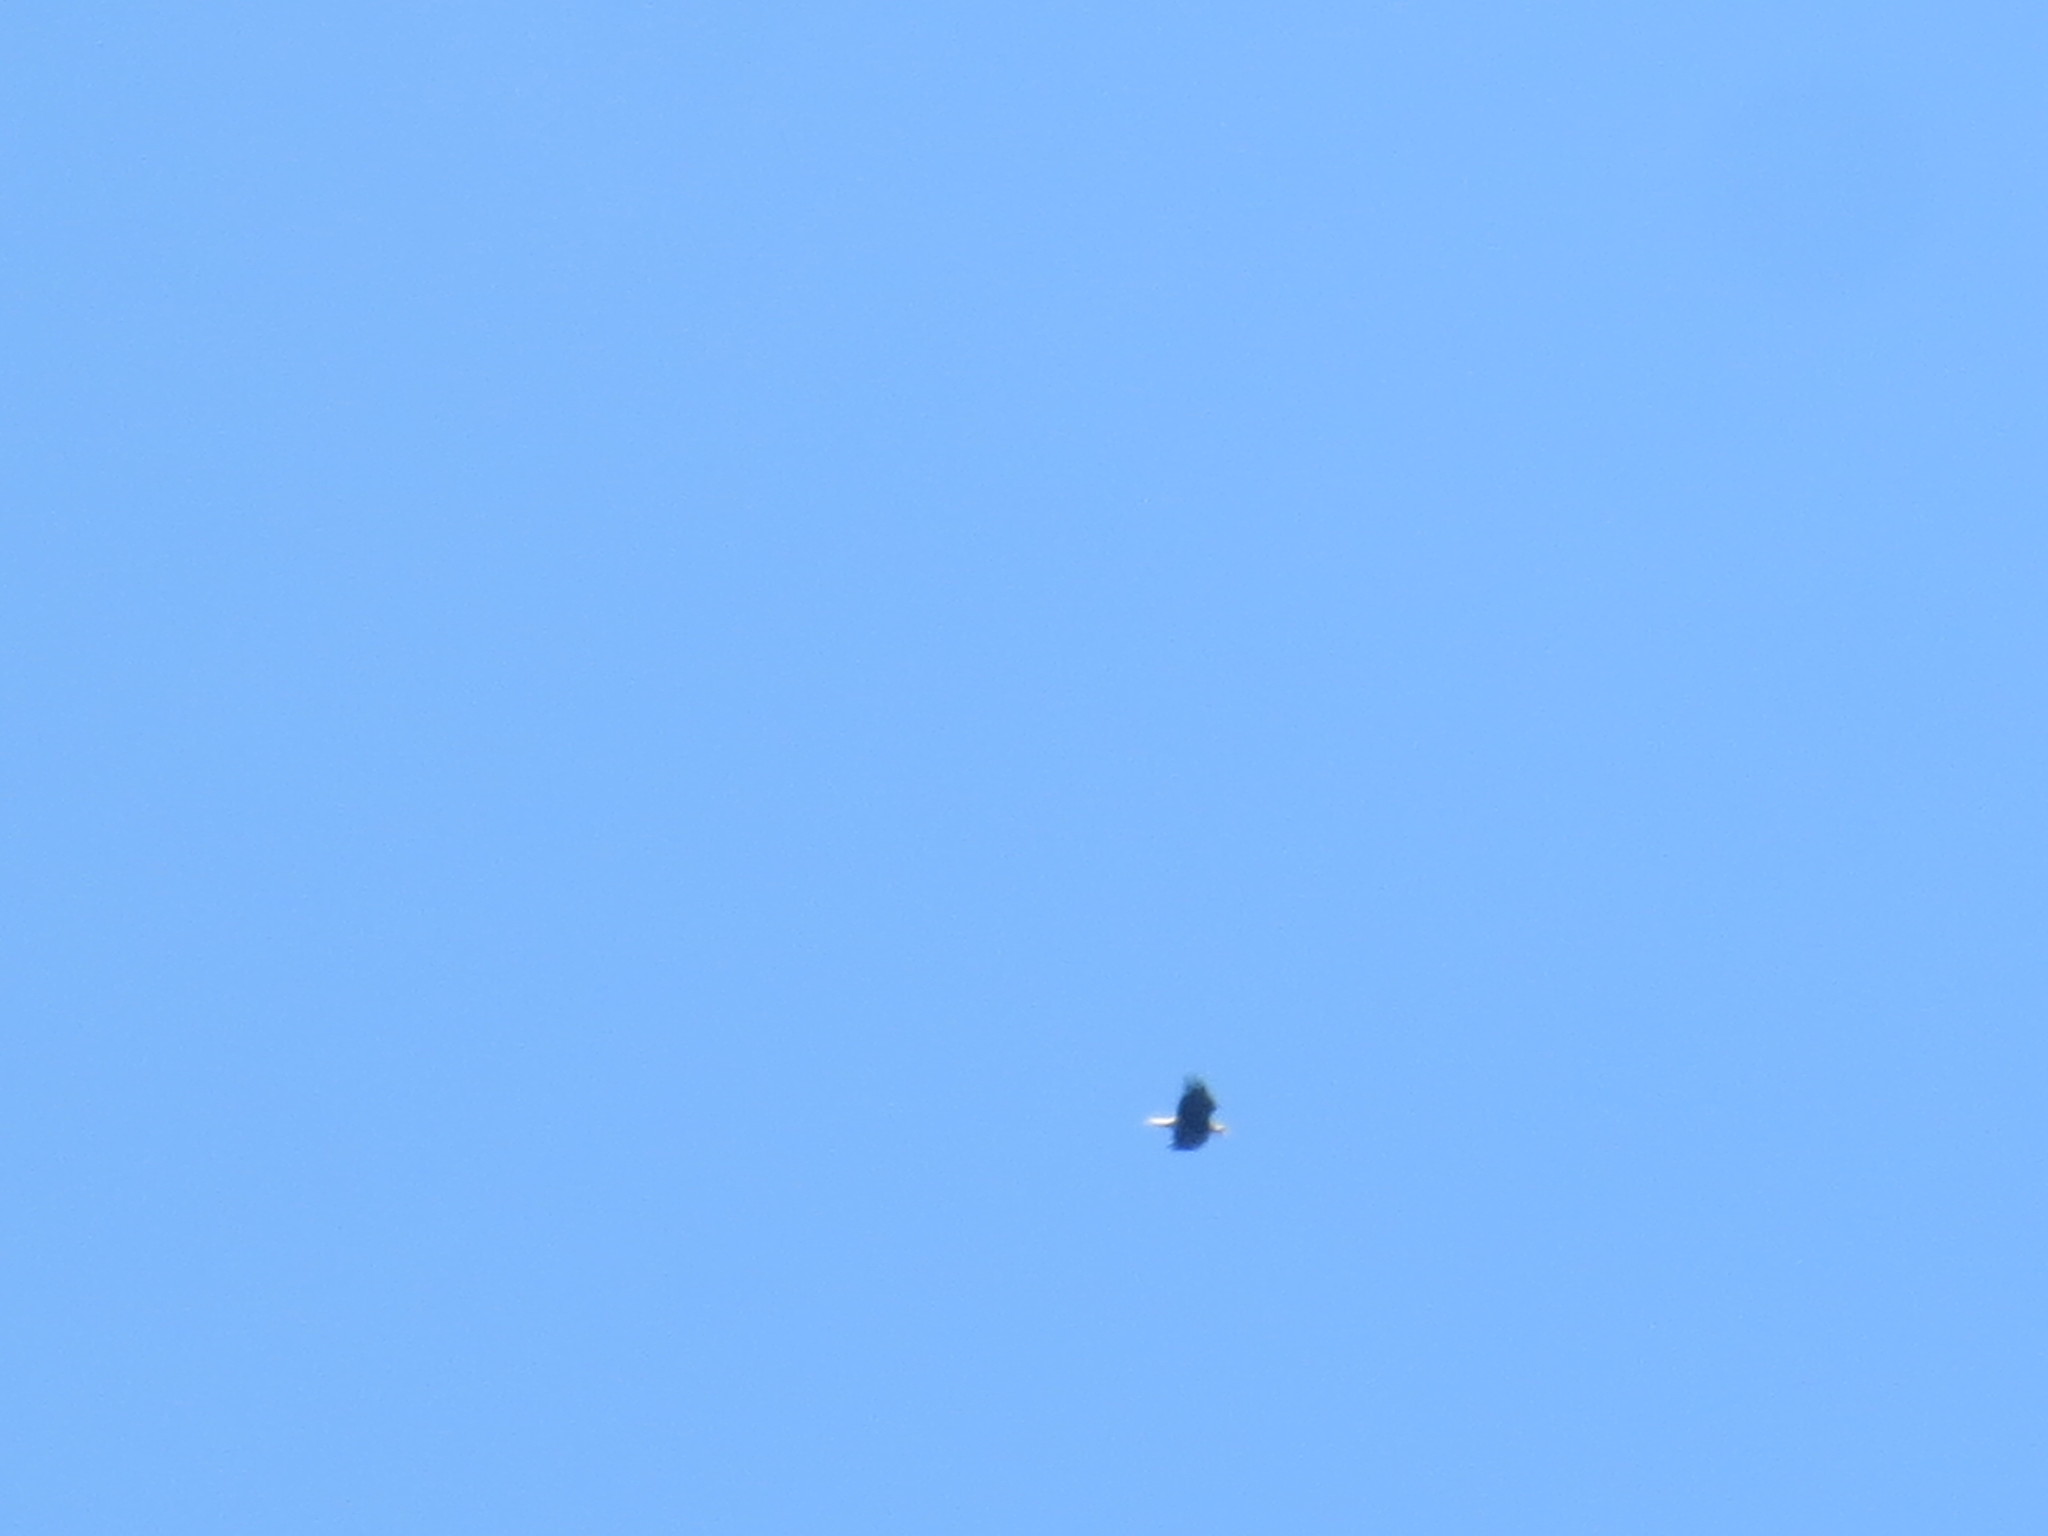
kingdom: Animalia
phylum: Chordata
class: Aves
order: Accipitriformes
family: Accipitridae
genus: Haliaeetus
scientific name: Haliaeetus leucocephalus
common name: Bald eagle
